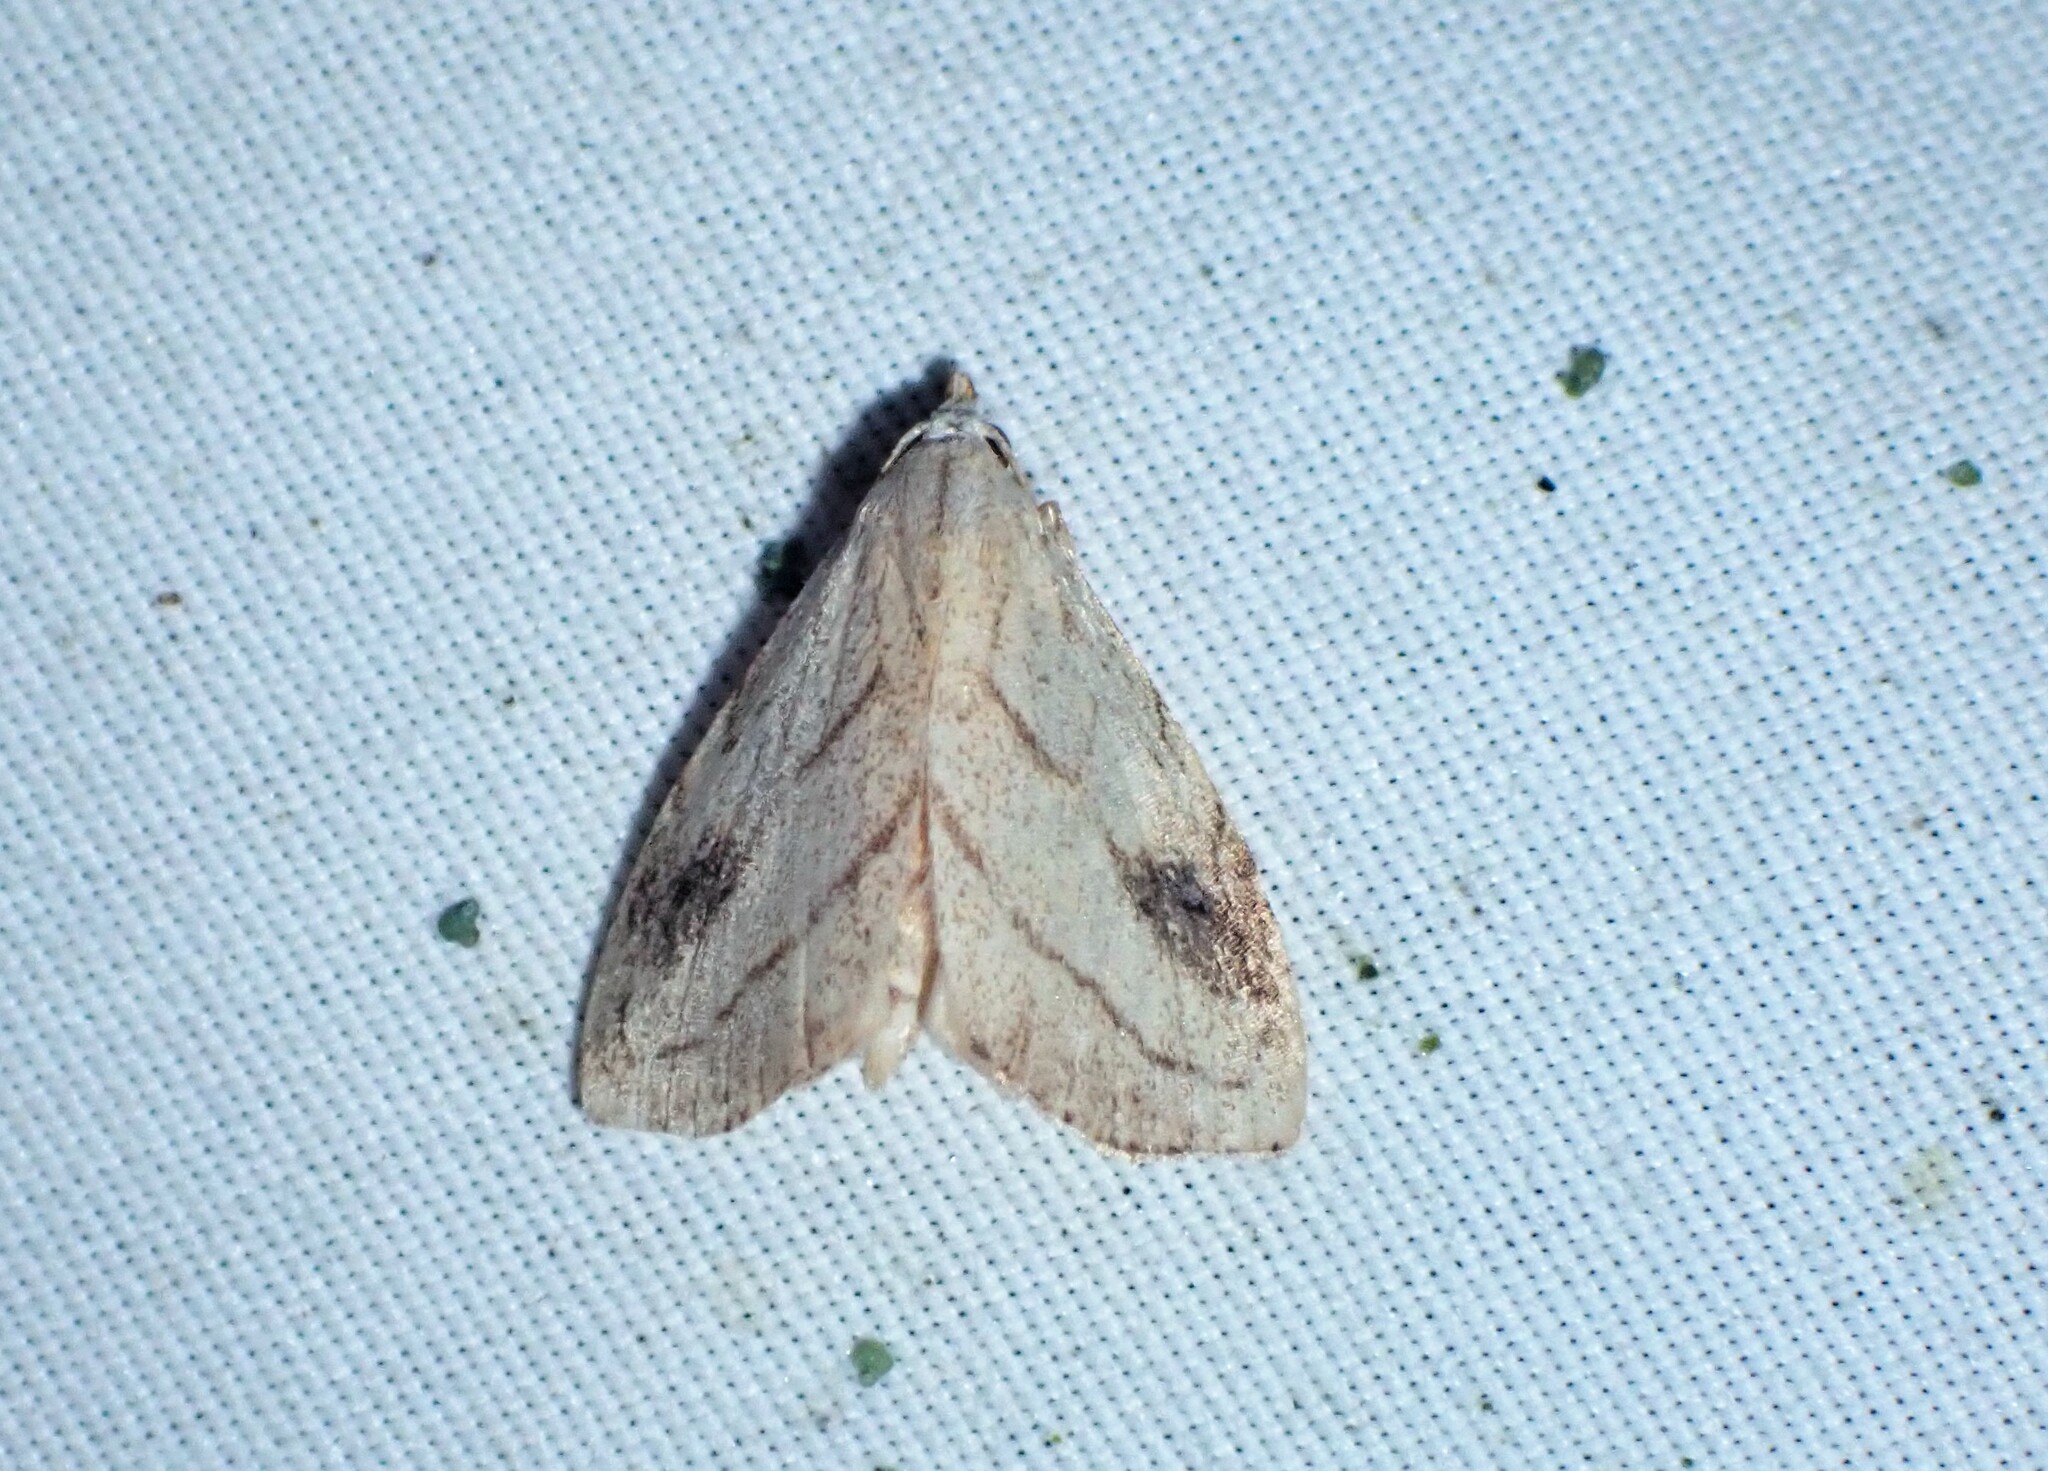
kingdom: Animalia
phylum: Arthropoda
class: Insecta
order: Lepidoptera
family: Erebidae
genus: Rivula
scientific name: Rivula propinqualis
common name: Spotted grass moth
